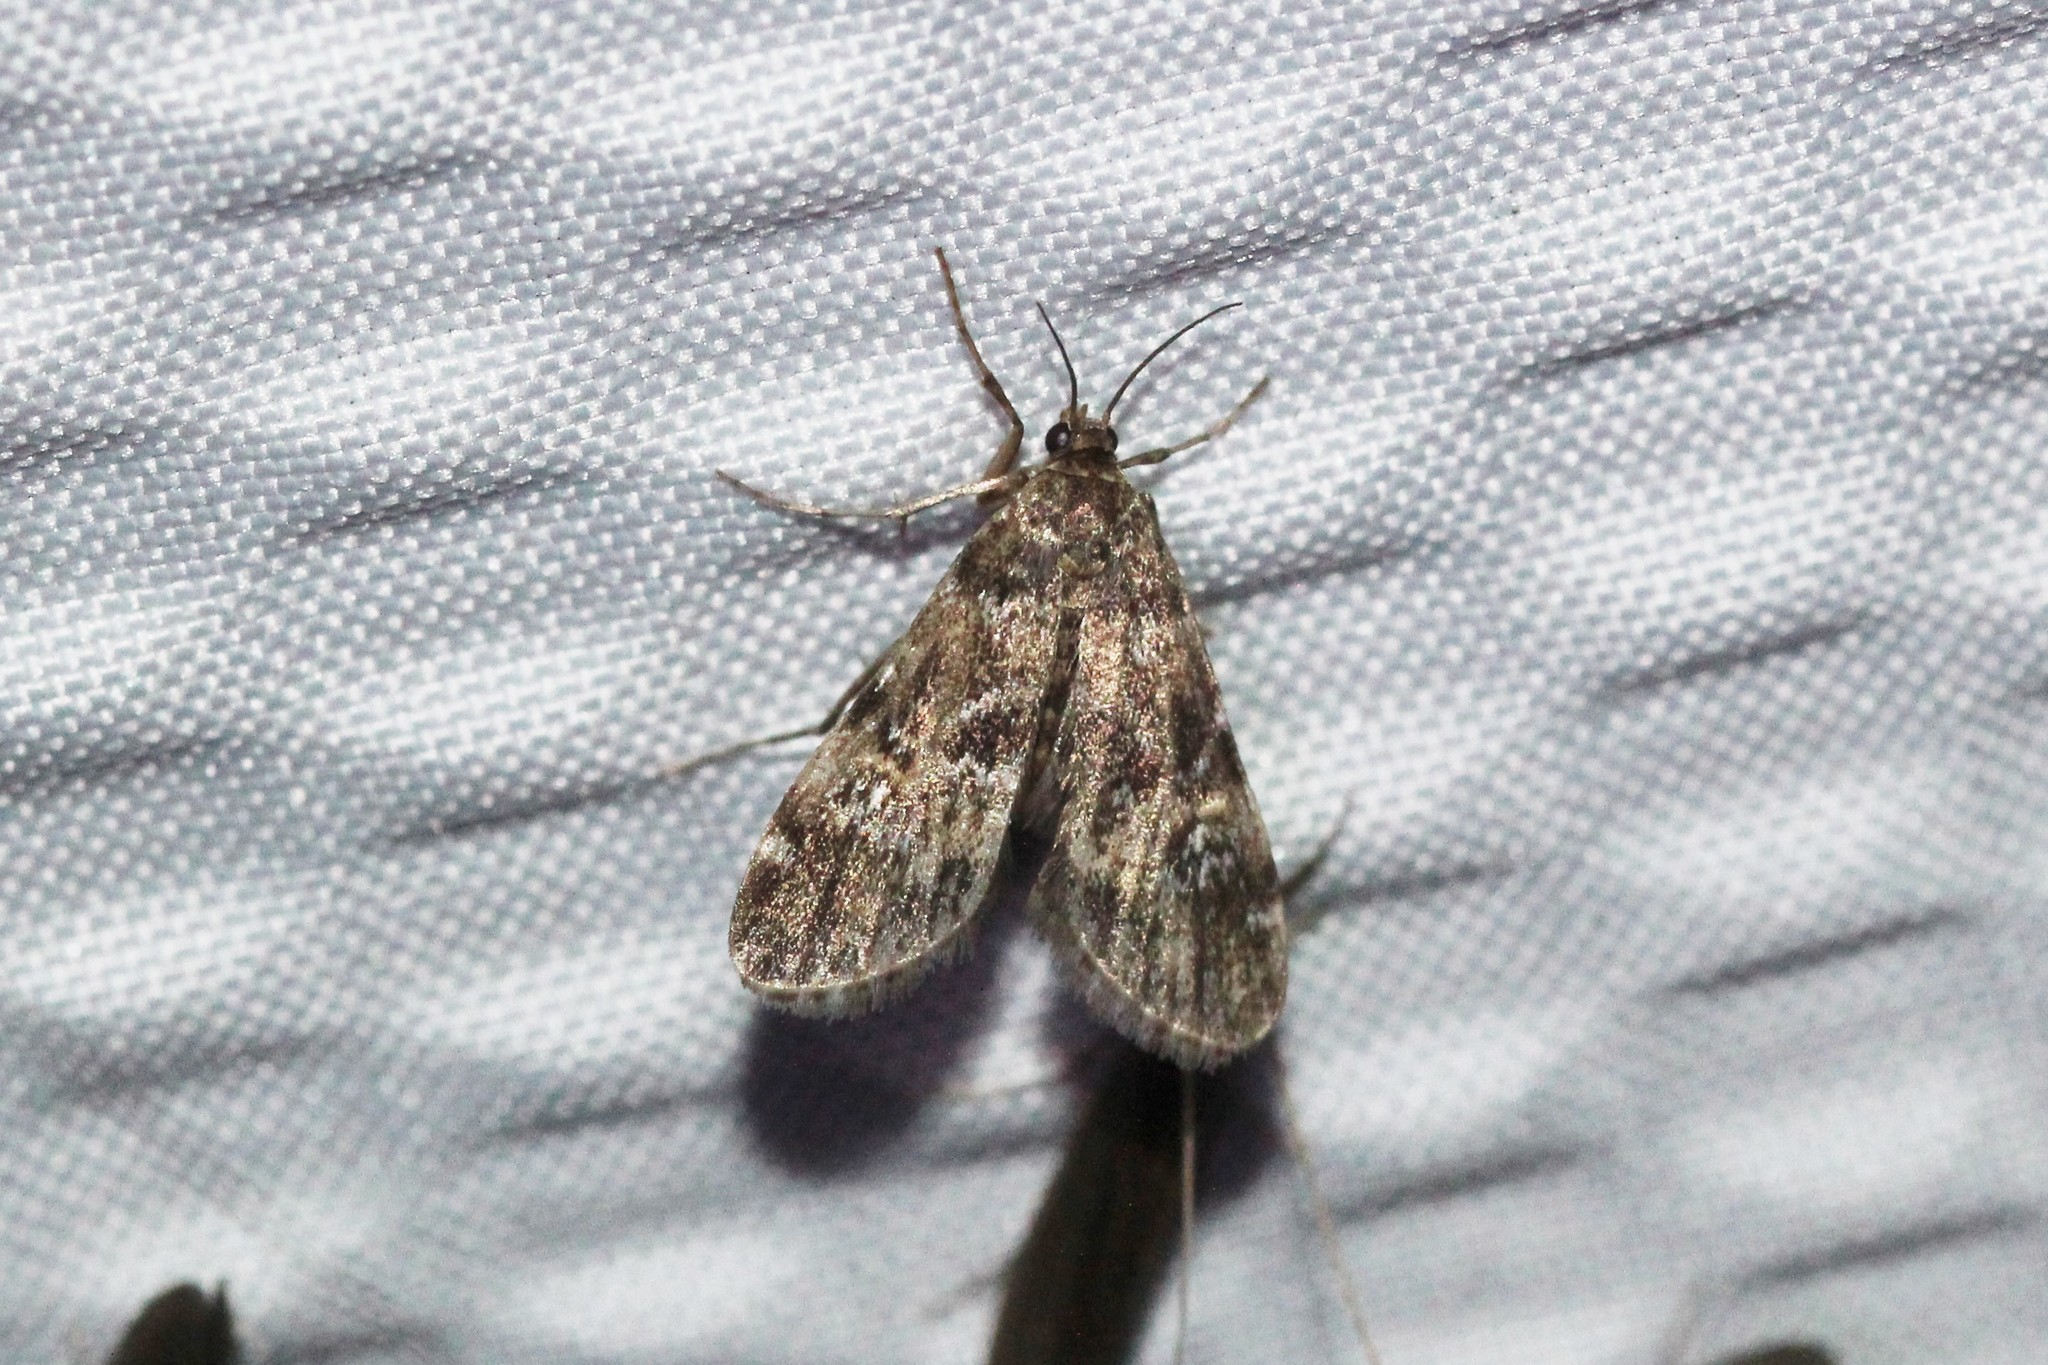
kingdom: Animalia
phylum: Arthropoda
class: Insecta
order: Lepidoptera
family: Crambidae
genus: Elophila
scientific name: Elophila obliteralis
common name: Waterlily leafcutter moth
